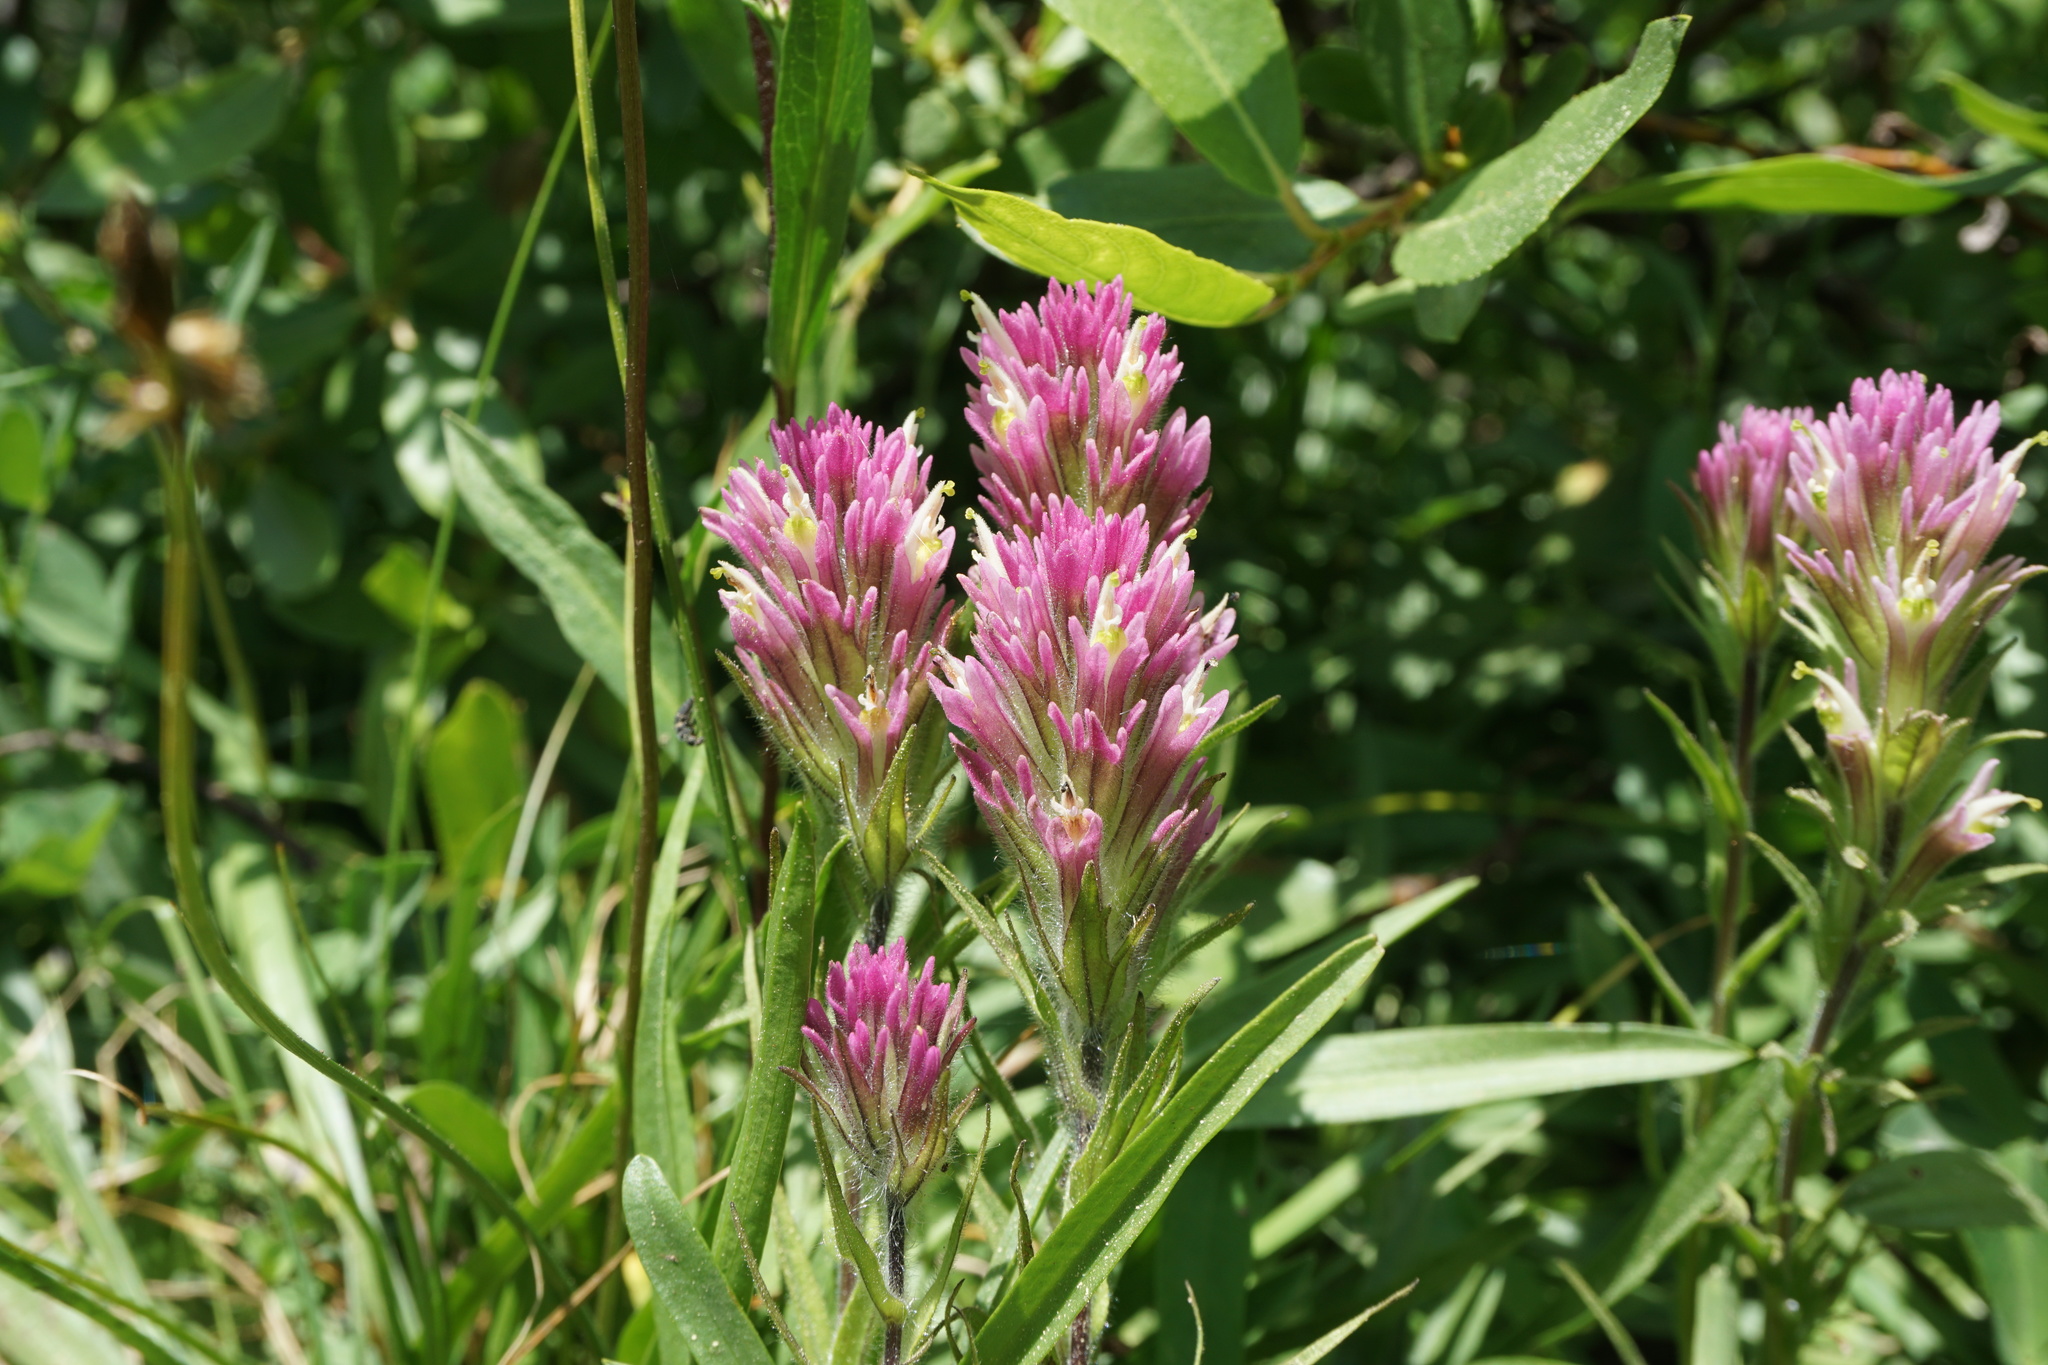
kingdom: Plantae
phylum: Tracheophyta
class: Magnoliopsida
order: Lamiales
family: Orobanchaceae
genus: Castilleja
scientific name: Castilleja lassenensis
